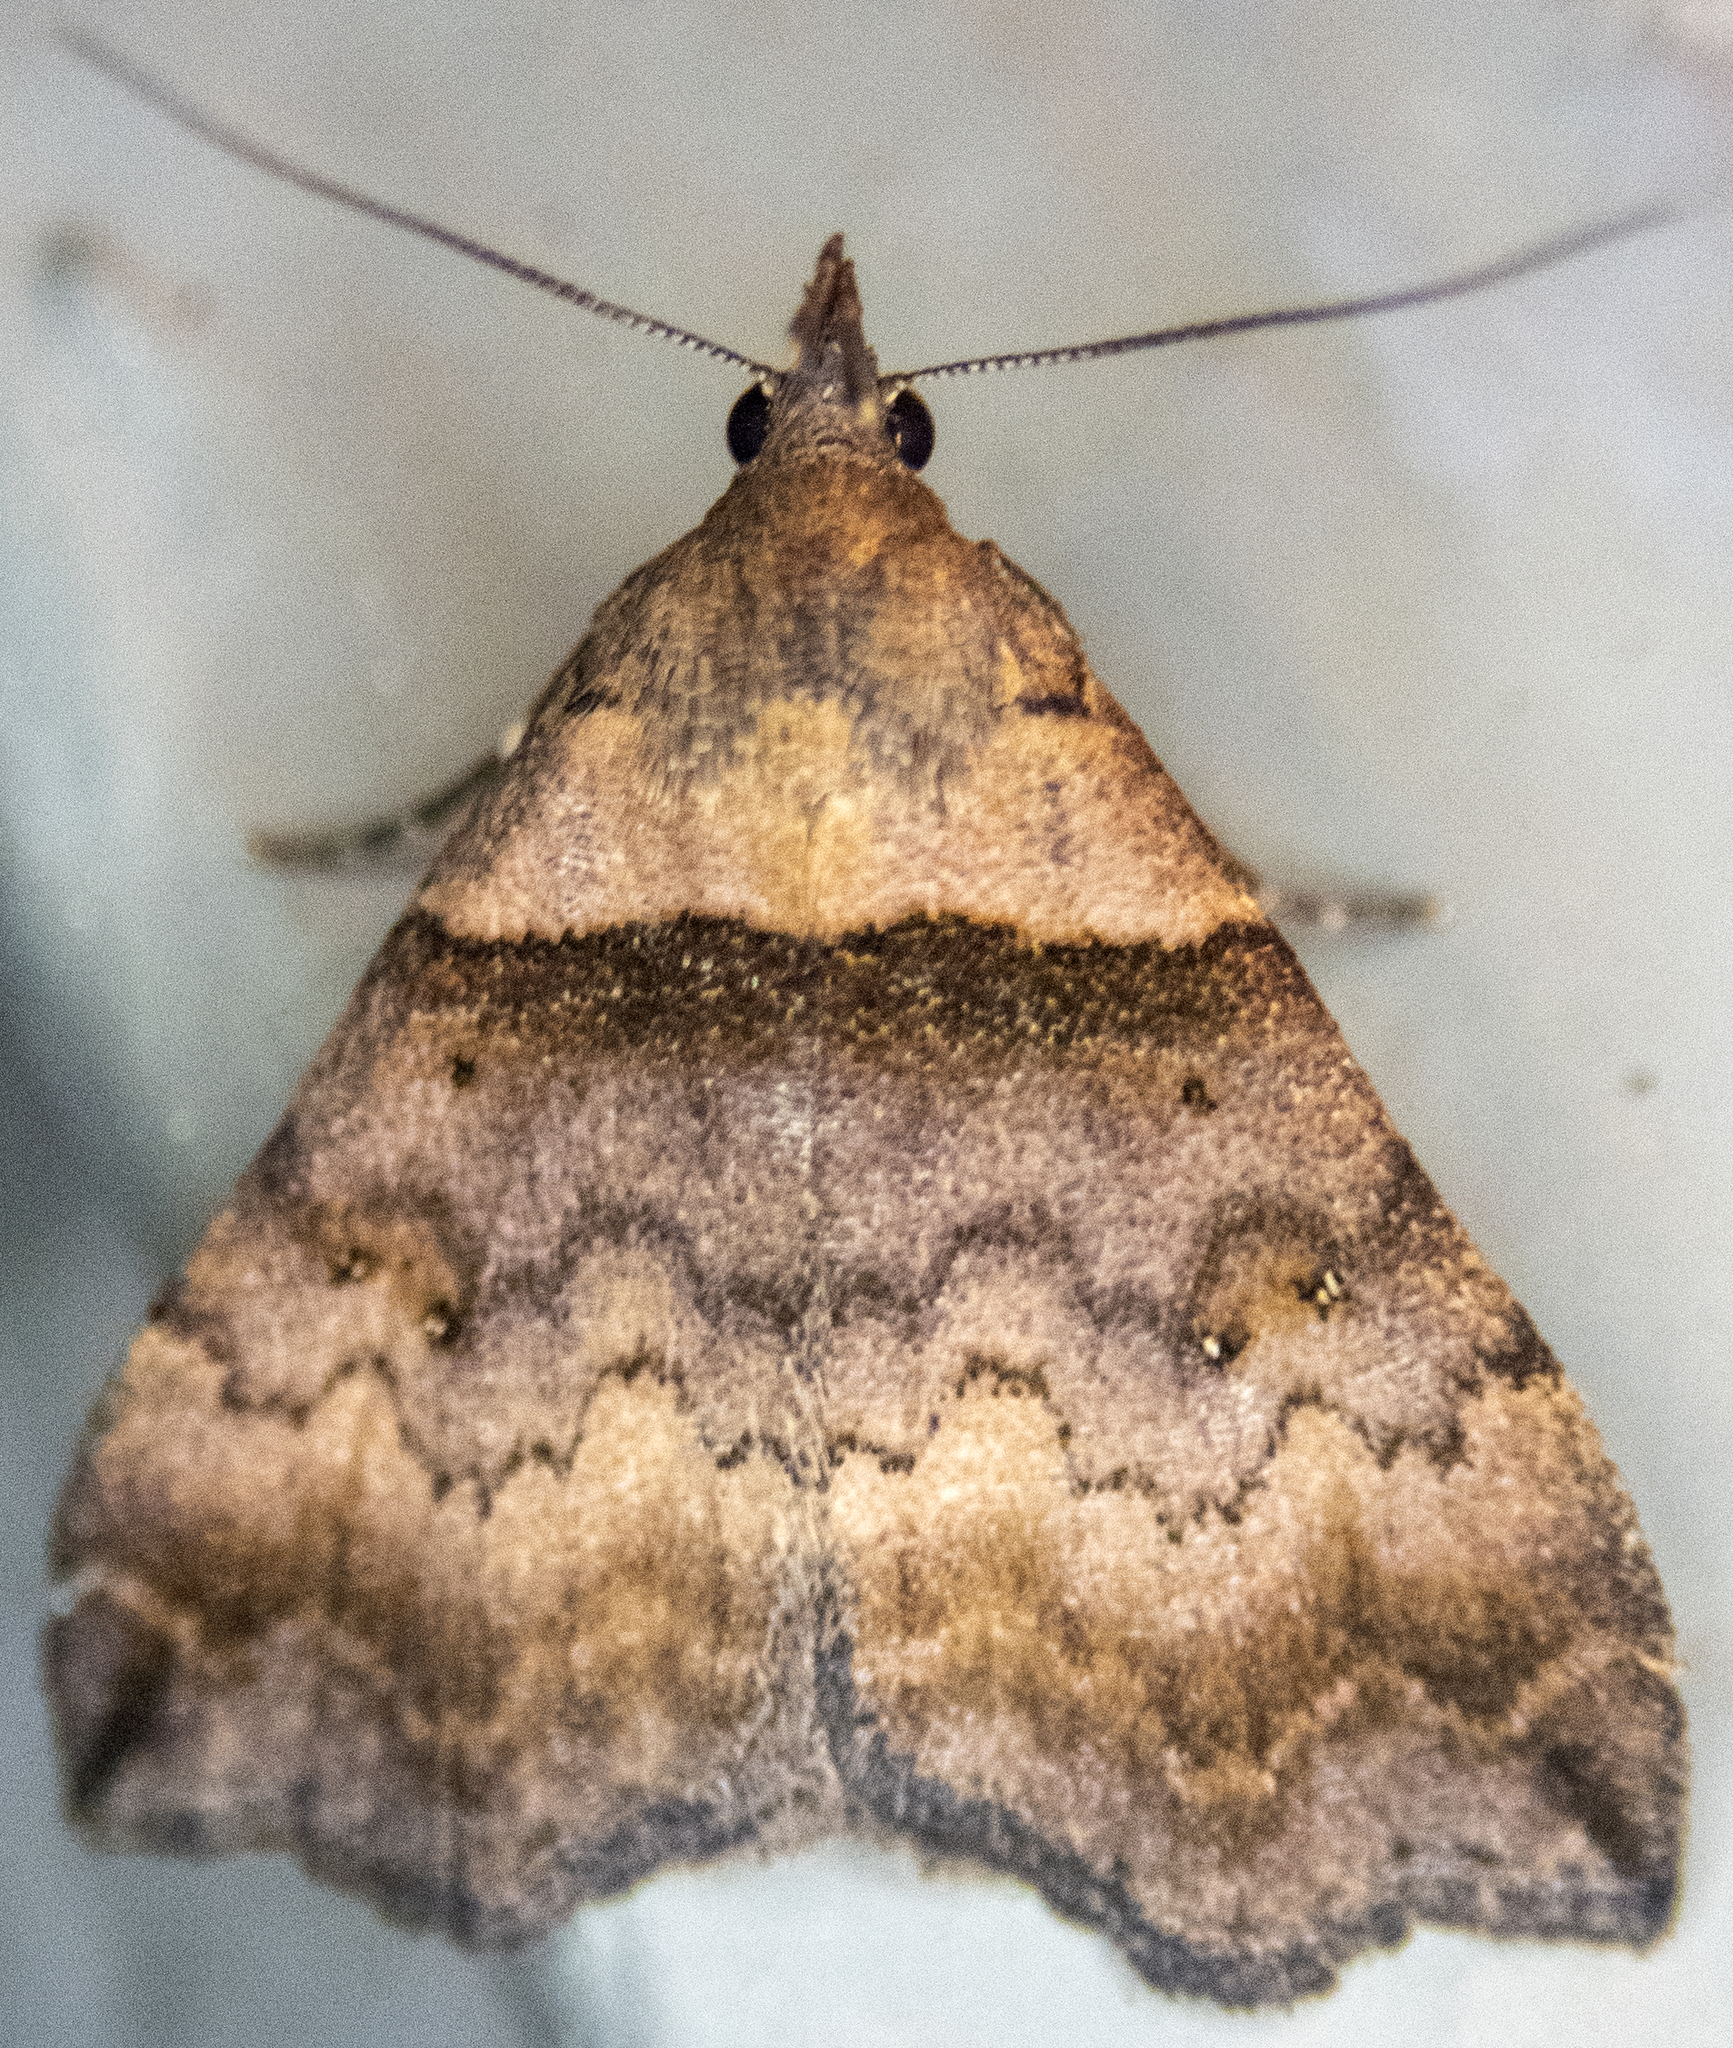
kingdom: Animalia
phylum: Arthropoda
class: Insecta
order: Lepidoptera
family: Erebidae
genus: Lascoria
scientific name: Lascoria ambigualis
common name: Ambiguous moth
